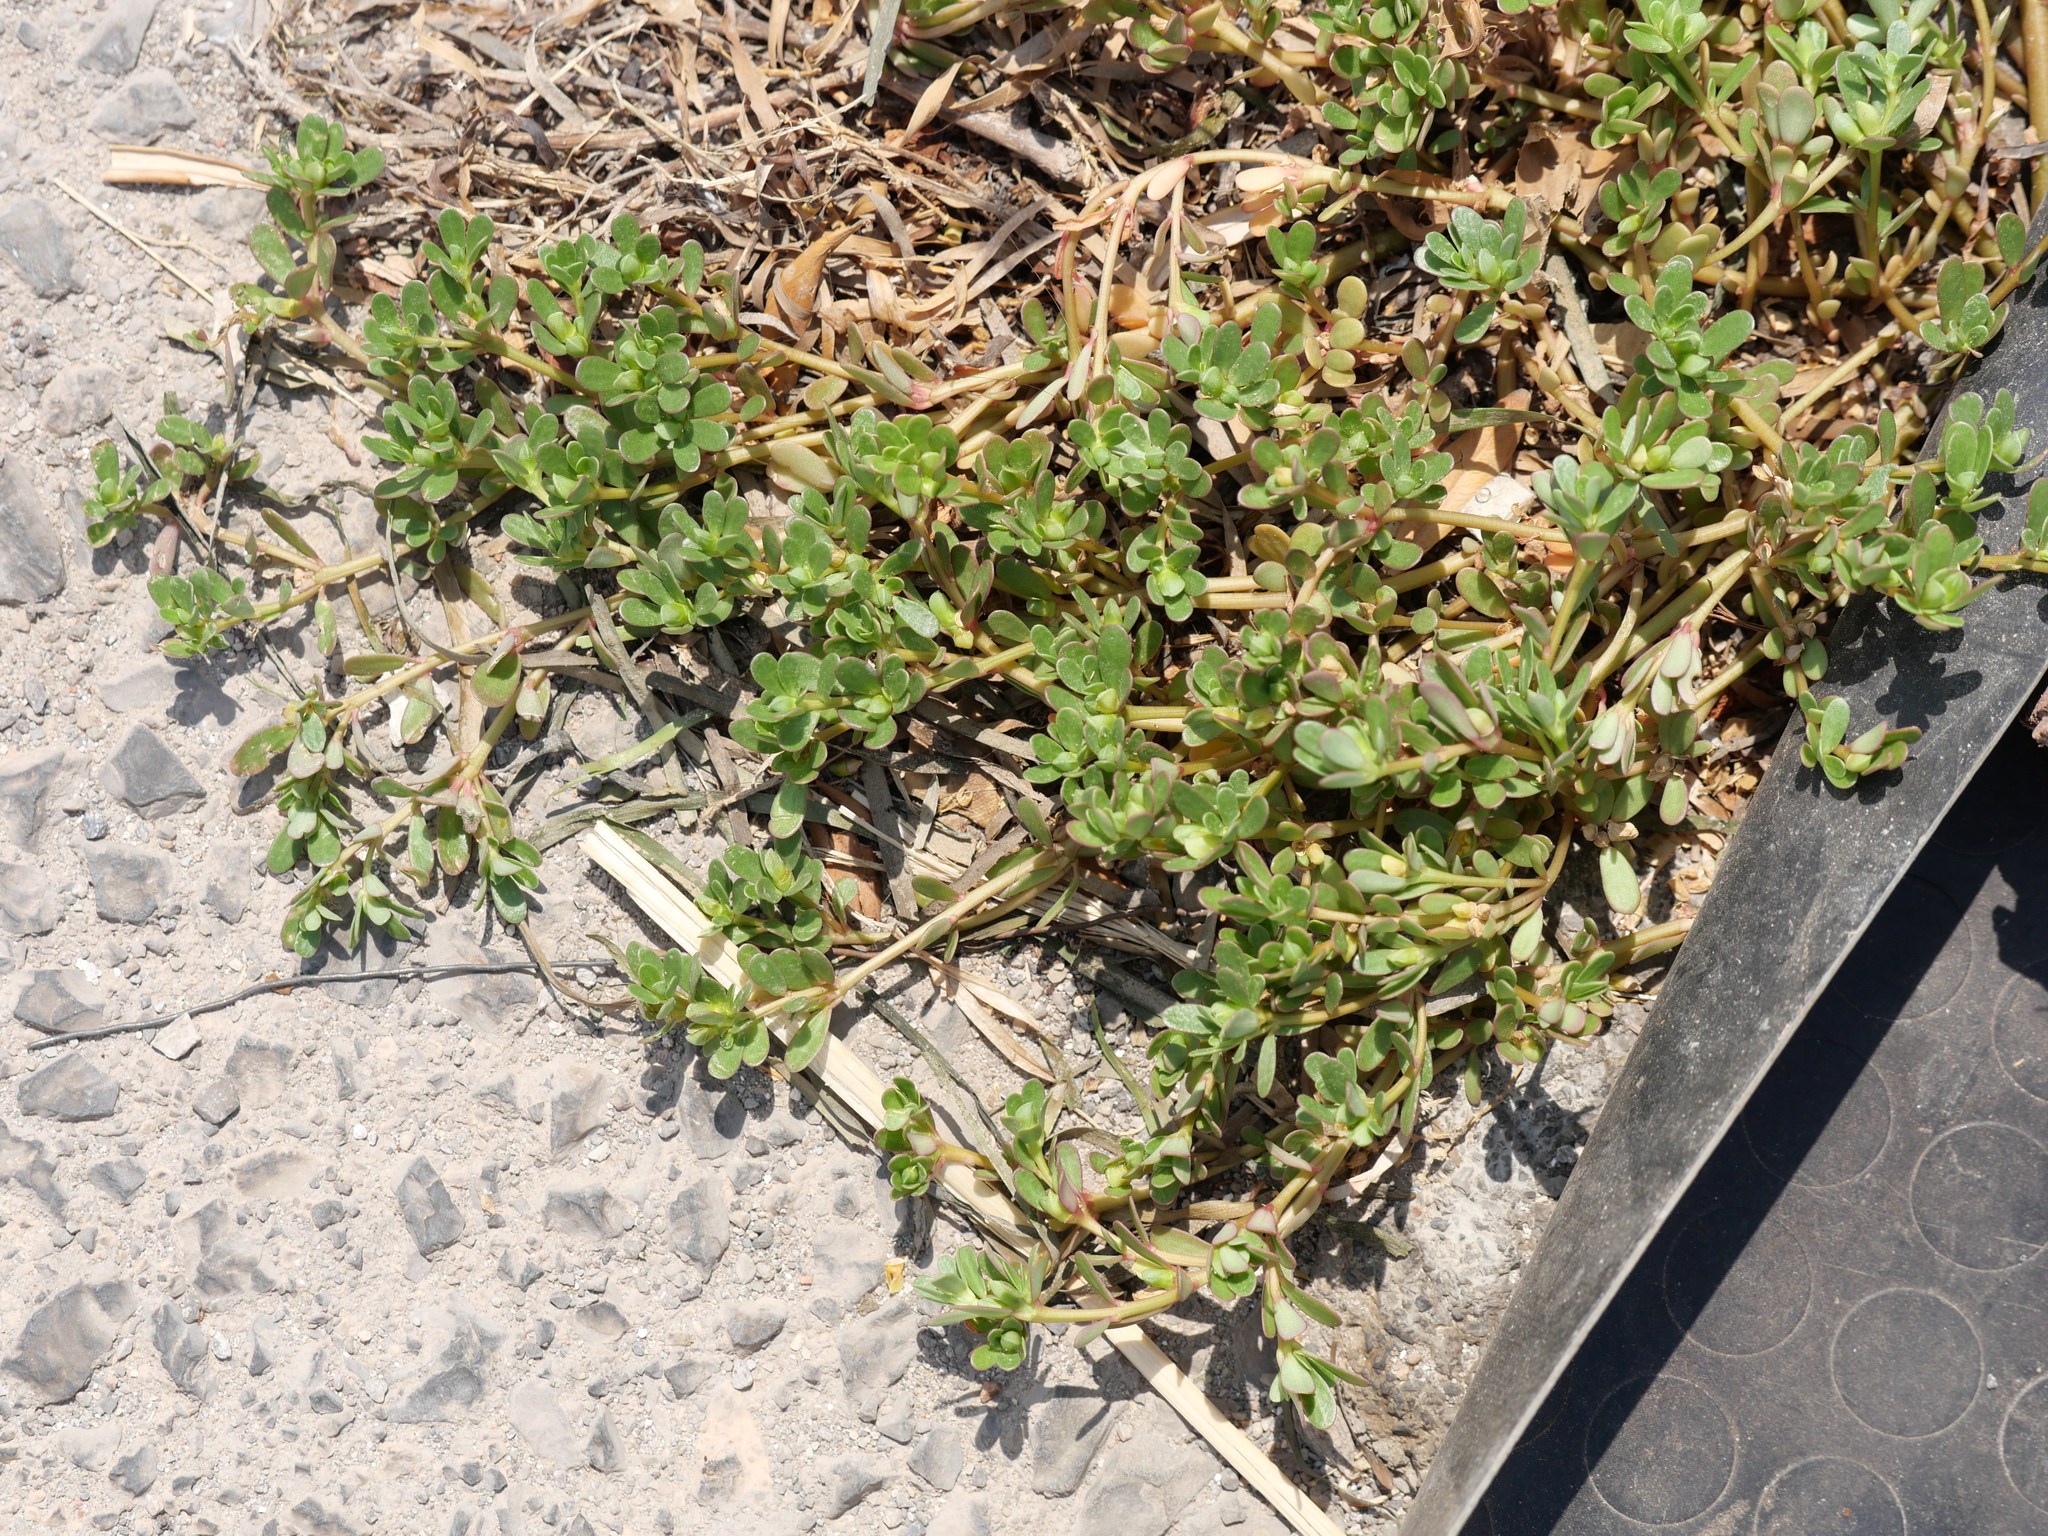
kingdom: Plantae
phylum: Tracheophyta
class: Magnoliopsida
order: Caryophyllales
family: Portulacaceae
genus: Portulaca
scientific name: Portulaca oleracea
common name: Common purslane
